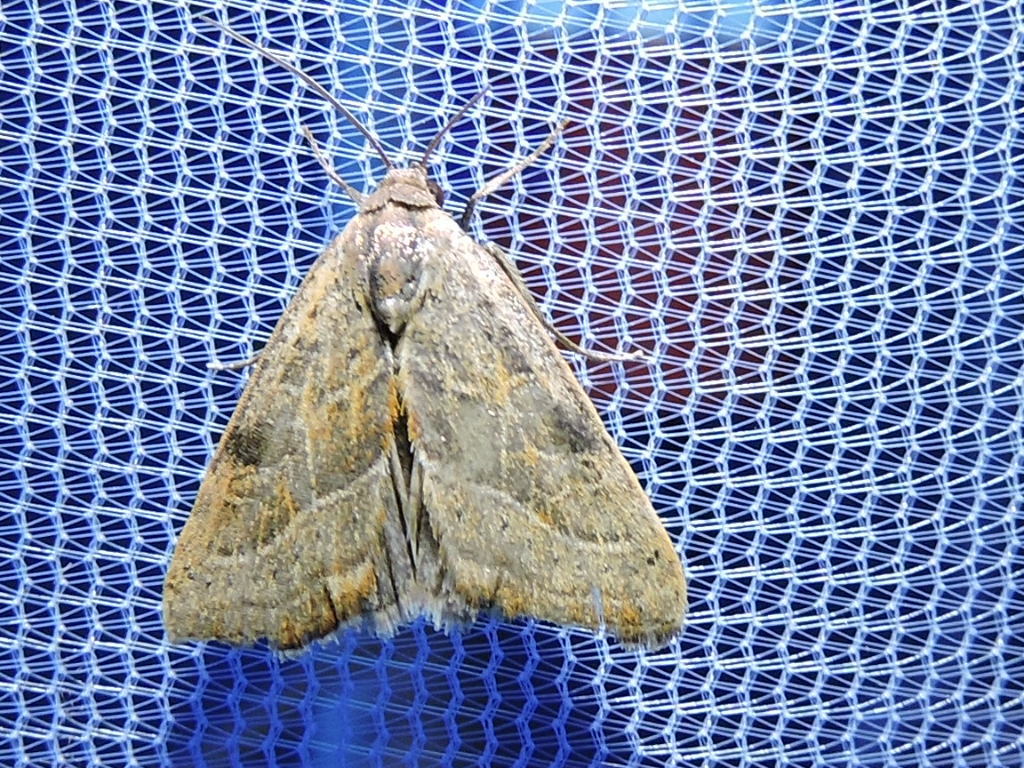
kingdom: Animalia
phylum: Arthropoda
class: Insecta
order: Lepidoptera
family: Noctuidae
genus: Galgula
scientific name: Galgula partita
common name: Wedgeling
